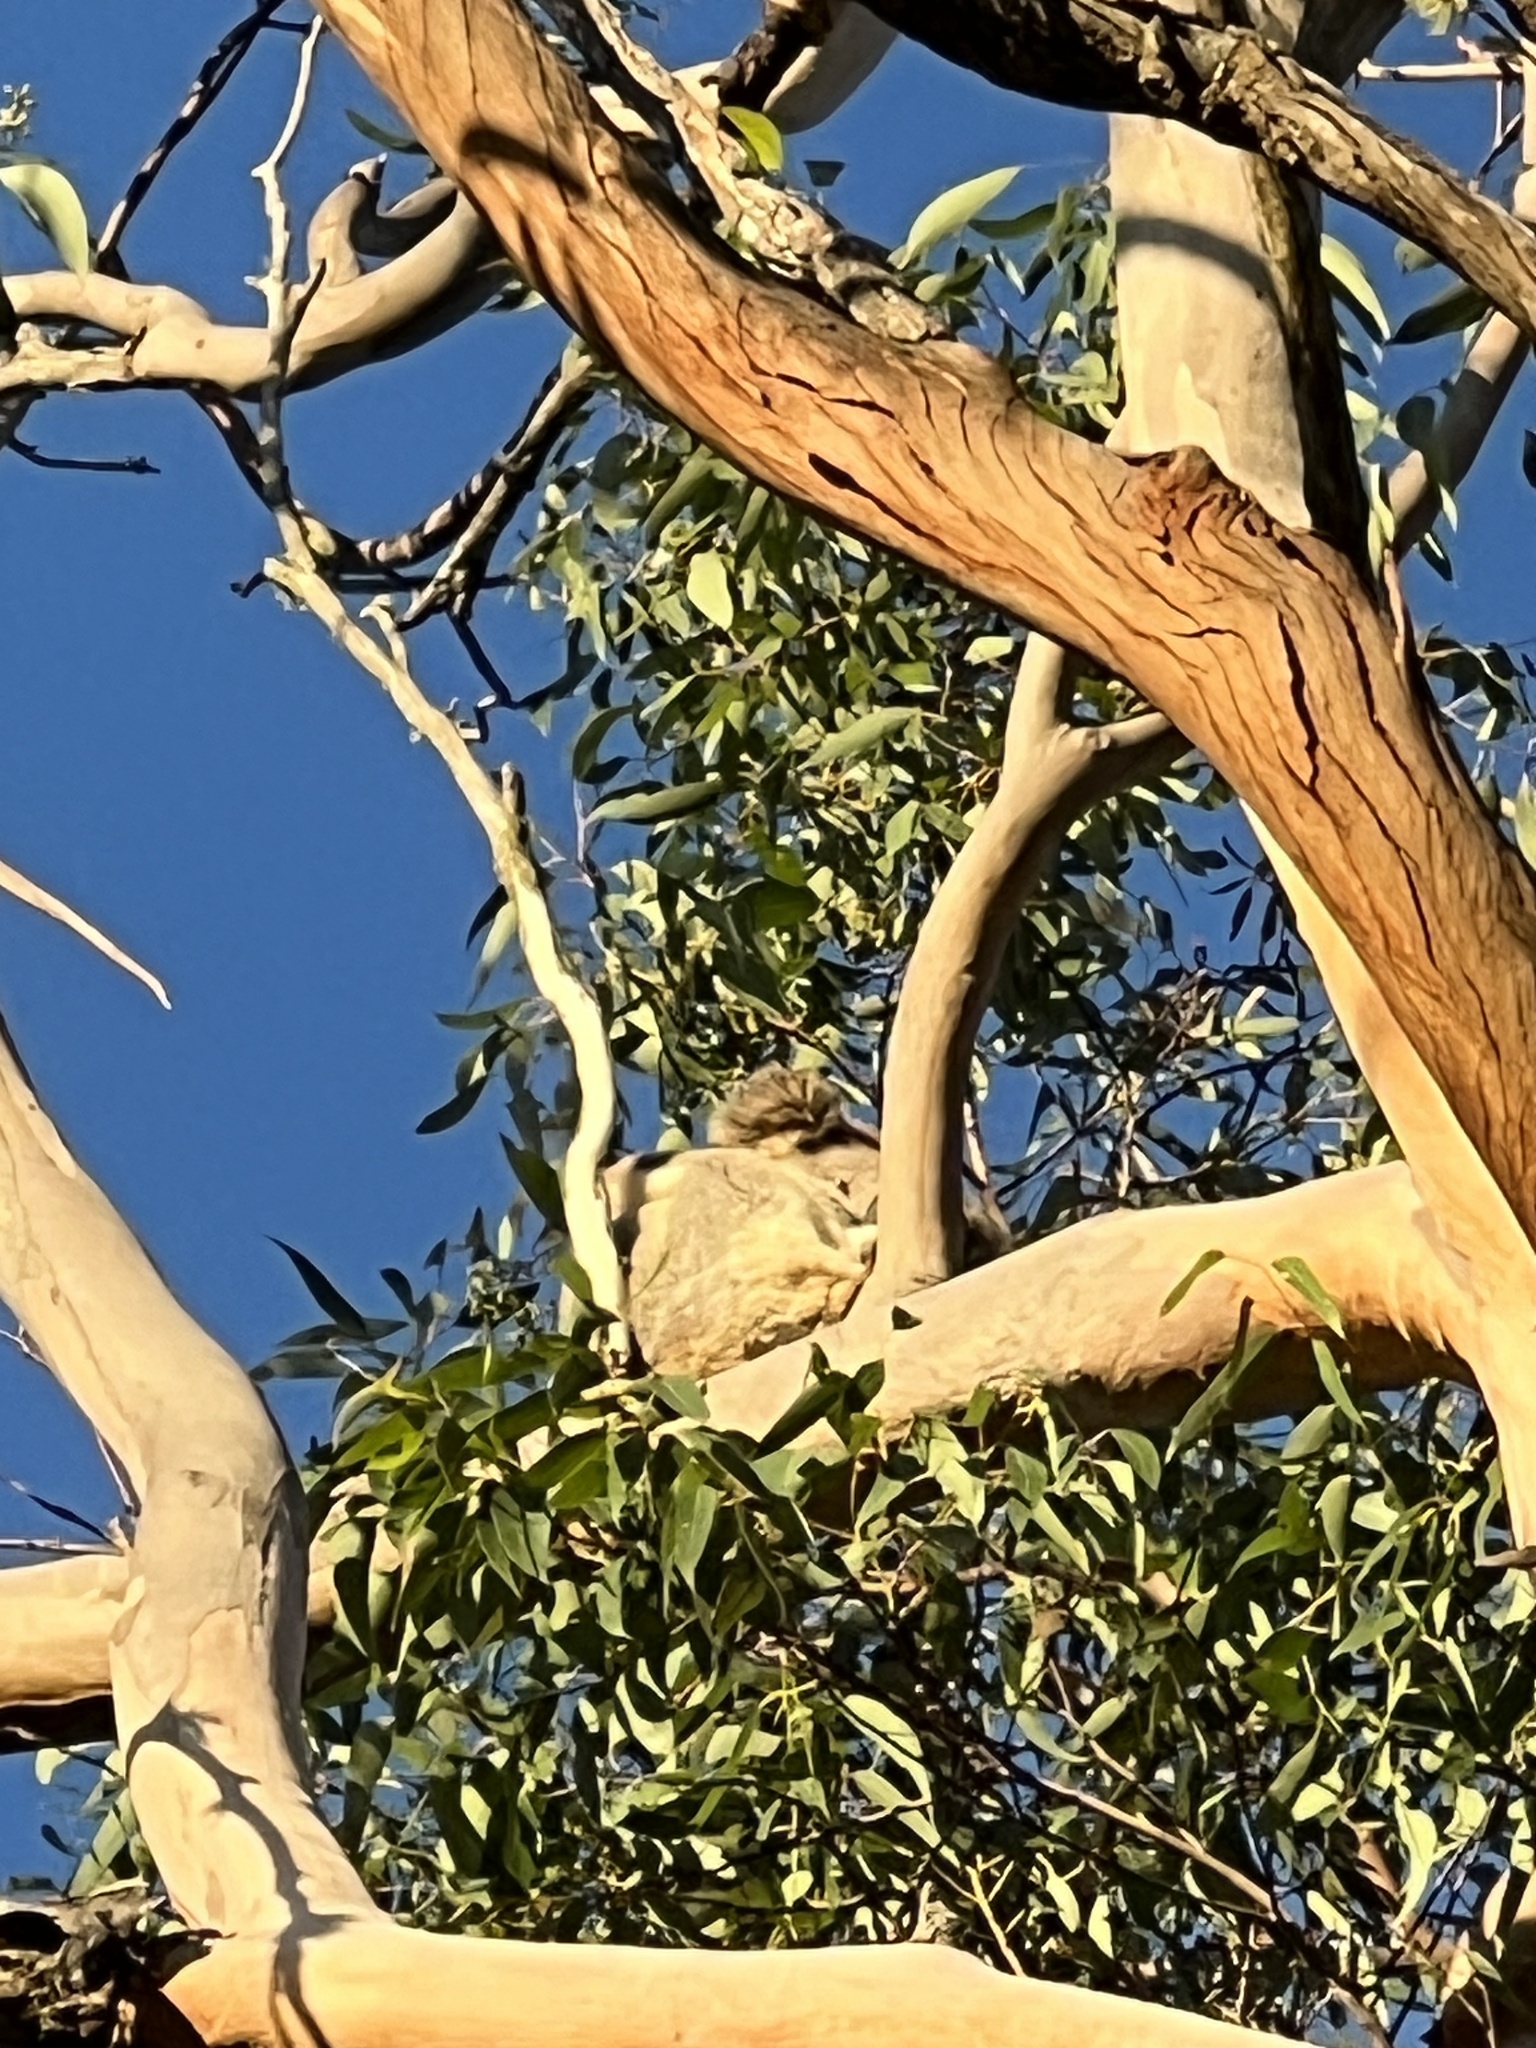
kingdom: Animalia
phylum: Chordata
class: Mammalia
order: Diprotodontia
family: Phascolarctidae
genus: Phascolarctos
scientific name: Phascolarctos cinereus
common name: Koala
